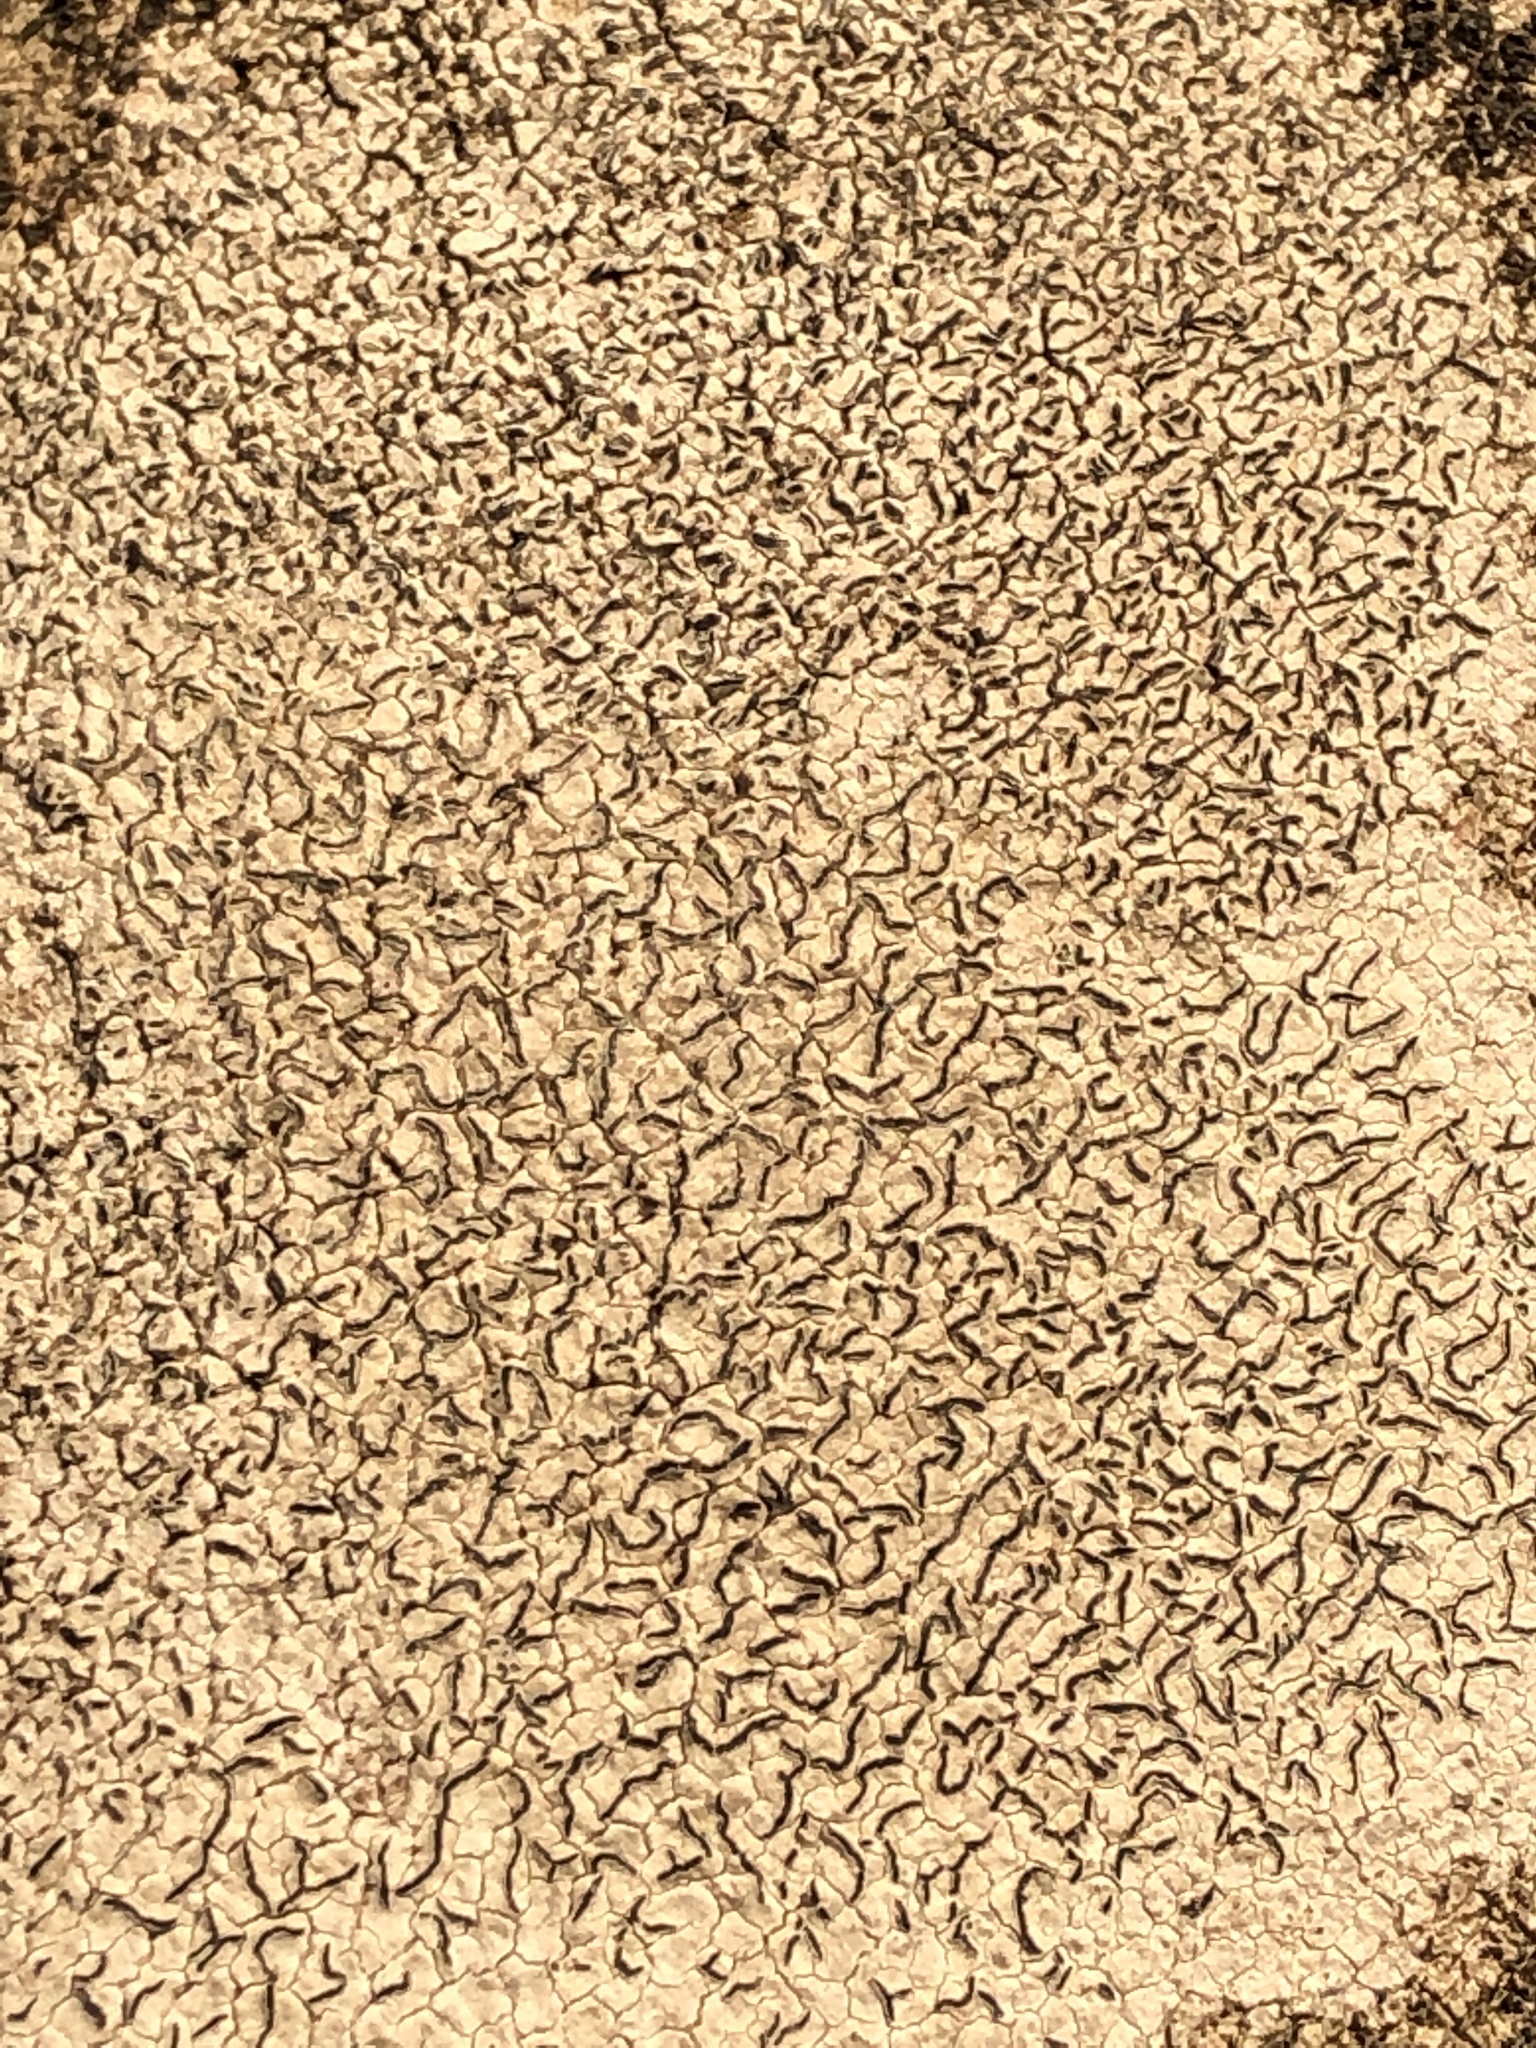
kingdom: Fungi
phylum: Ascomycota
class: Lecanoromycetes
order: Ostropales
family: Graphidaceae
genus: Graphis
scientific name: Graphis scripta
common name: Script lichen
